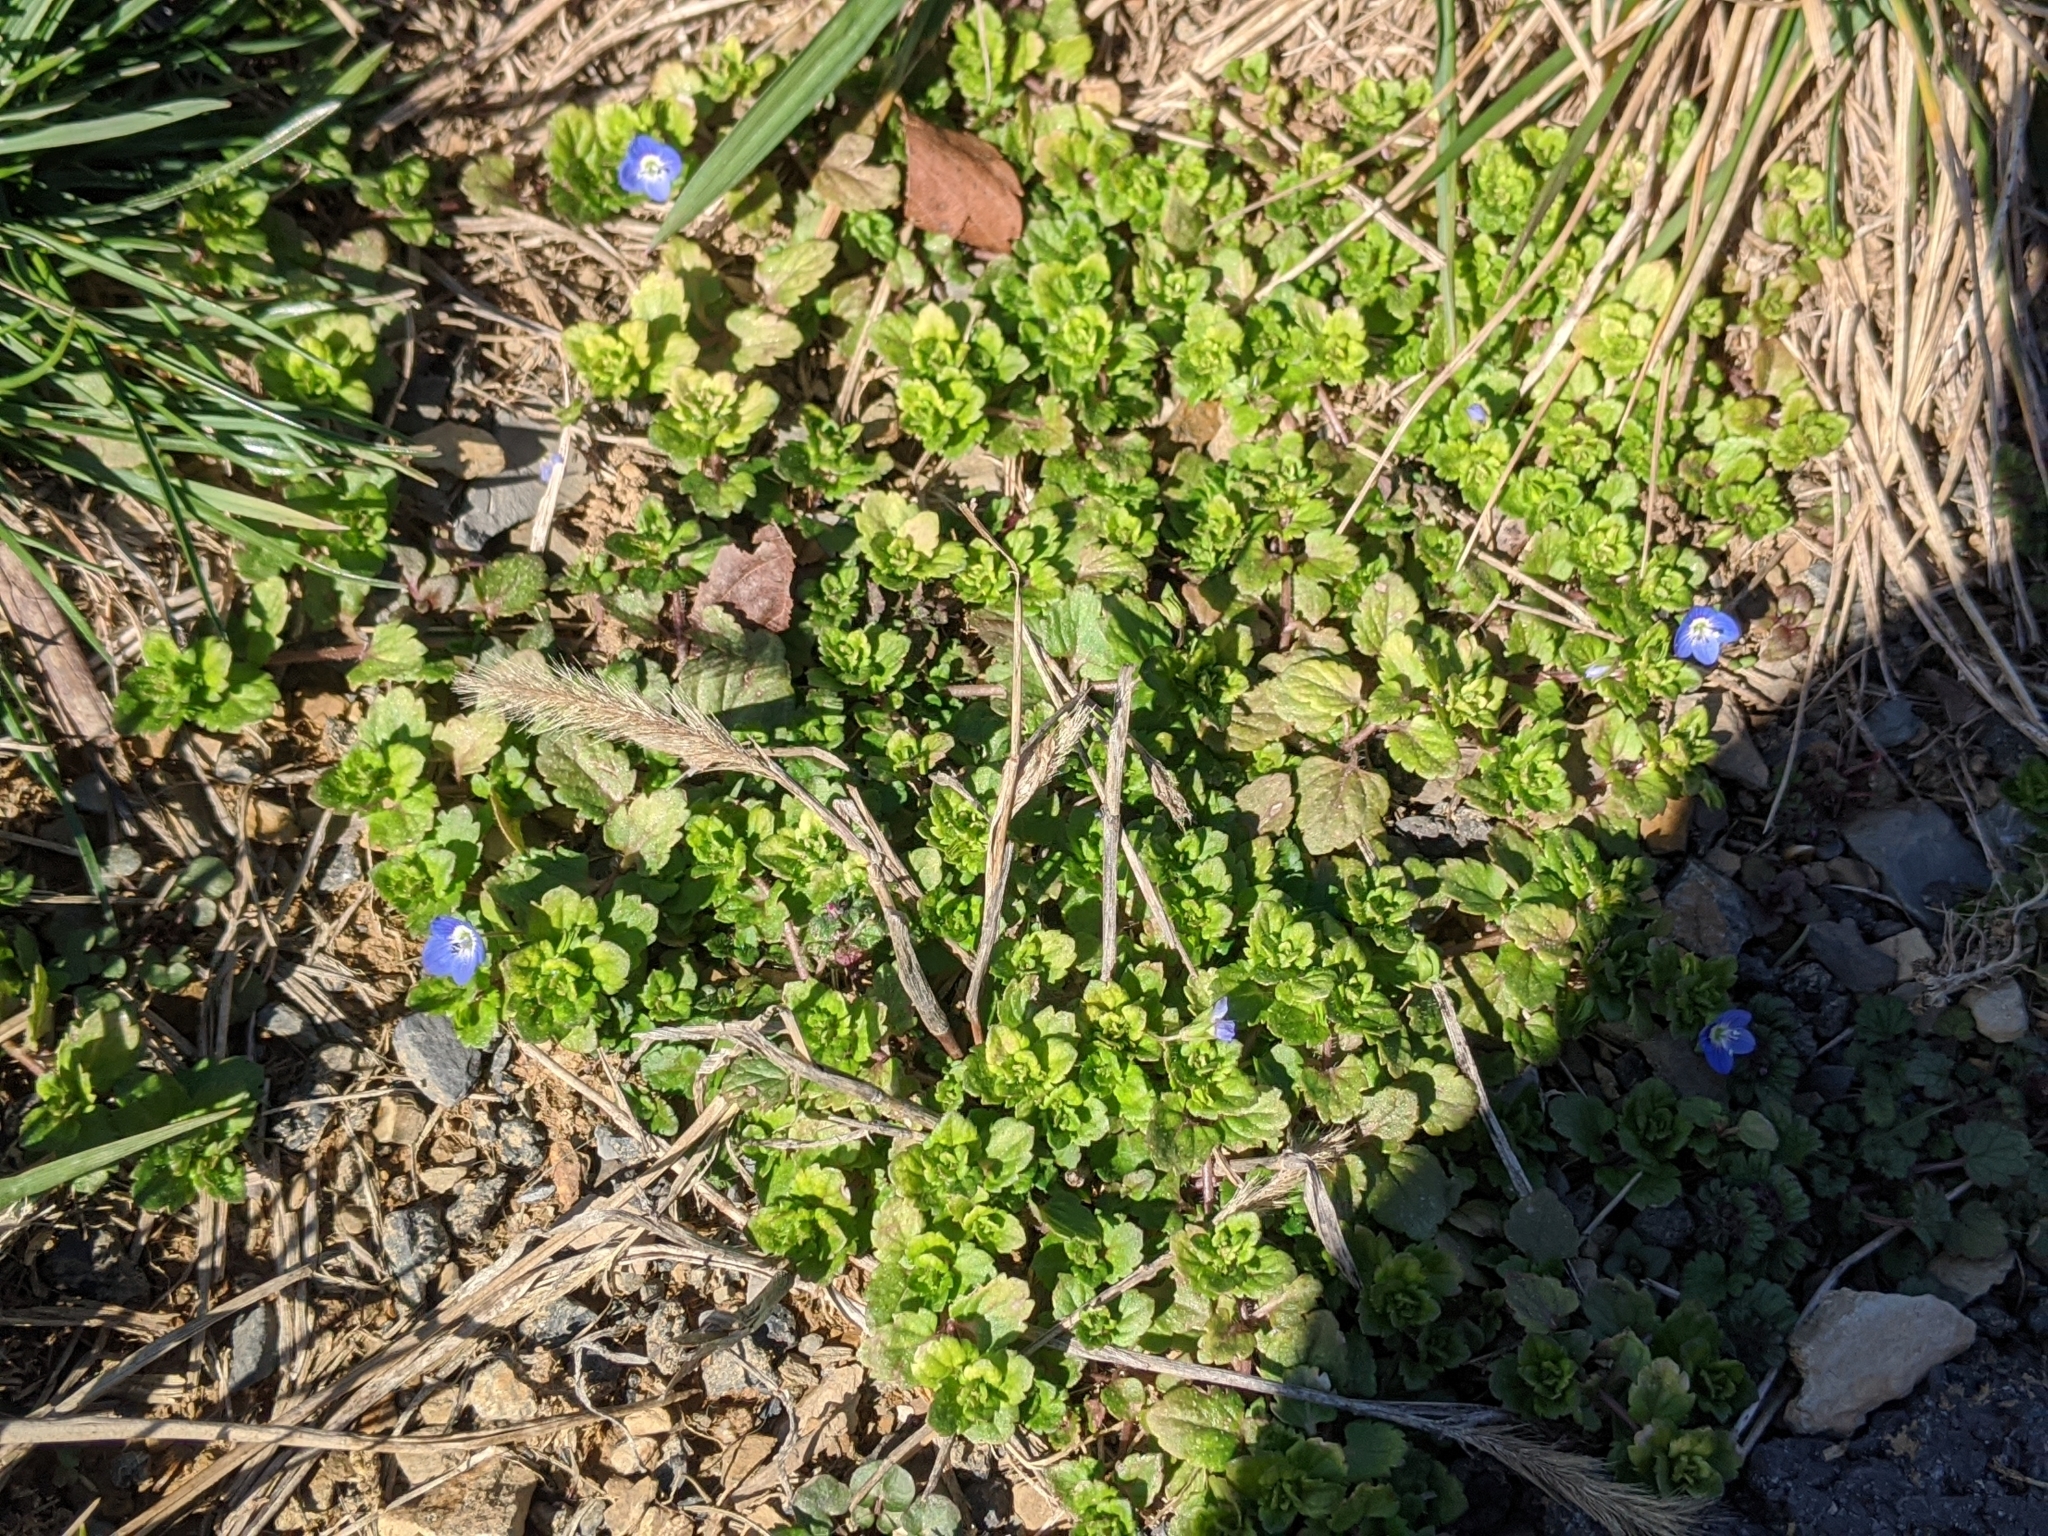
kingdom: Plantae
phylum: Tracheophyta
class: Magnoliopsida
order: Lamiales
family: Plantaginaceae
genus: Veronica
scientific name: Veronica persica
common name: Common field-speedwell
